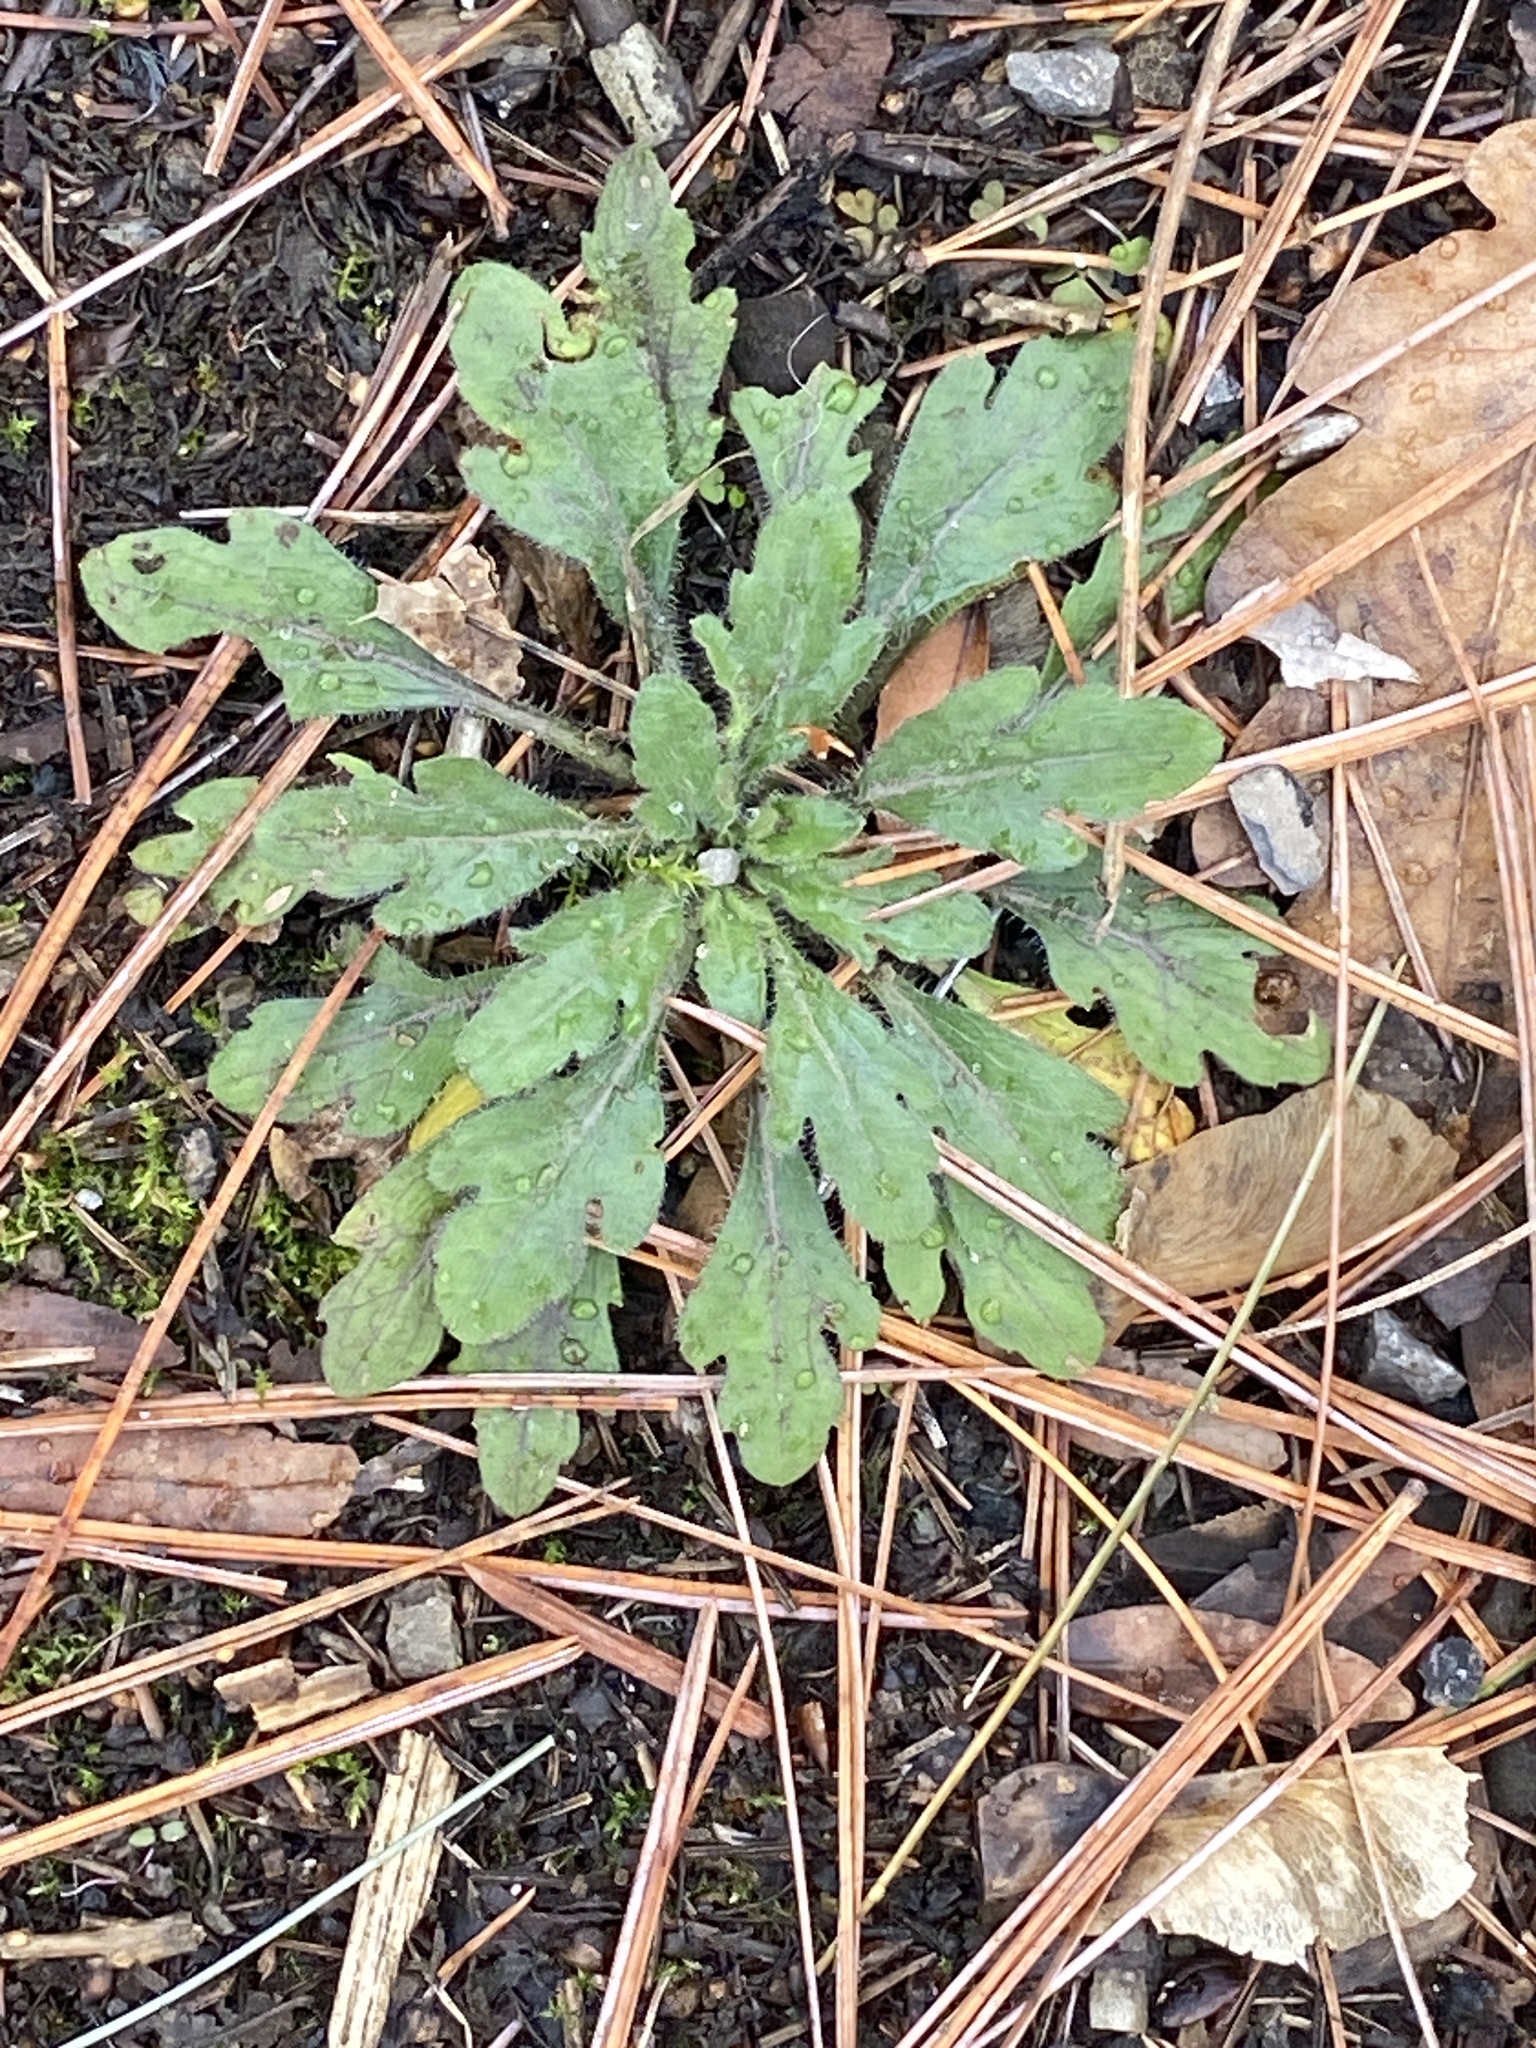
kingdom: Plantae
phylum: Tracheophyta
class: Magnoliopsida
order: Asterales
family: Asteraceae
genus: Erigeron
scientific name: Erigeron canadensis
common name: Canadian fleabane
